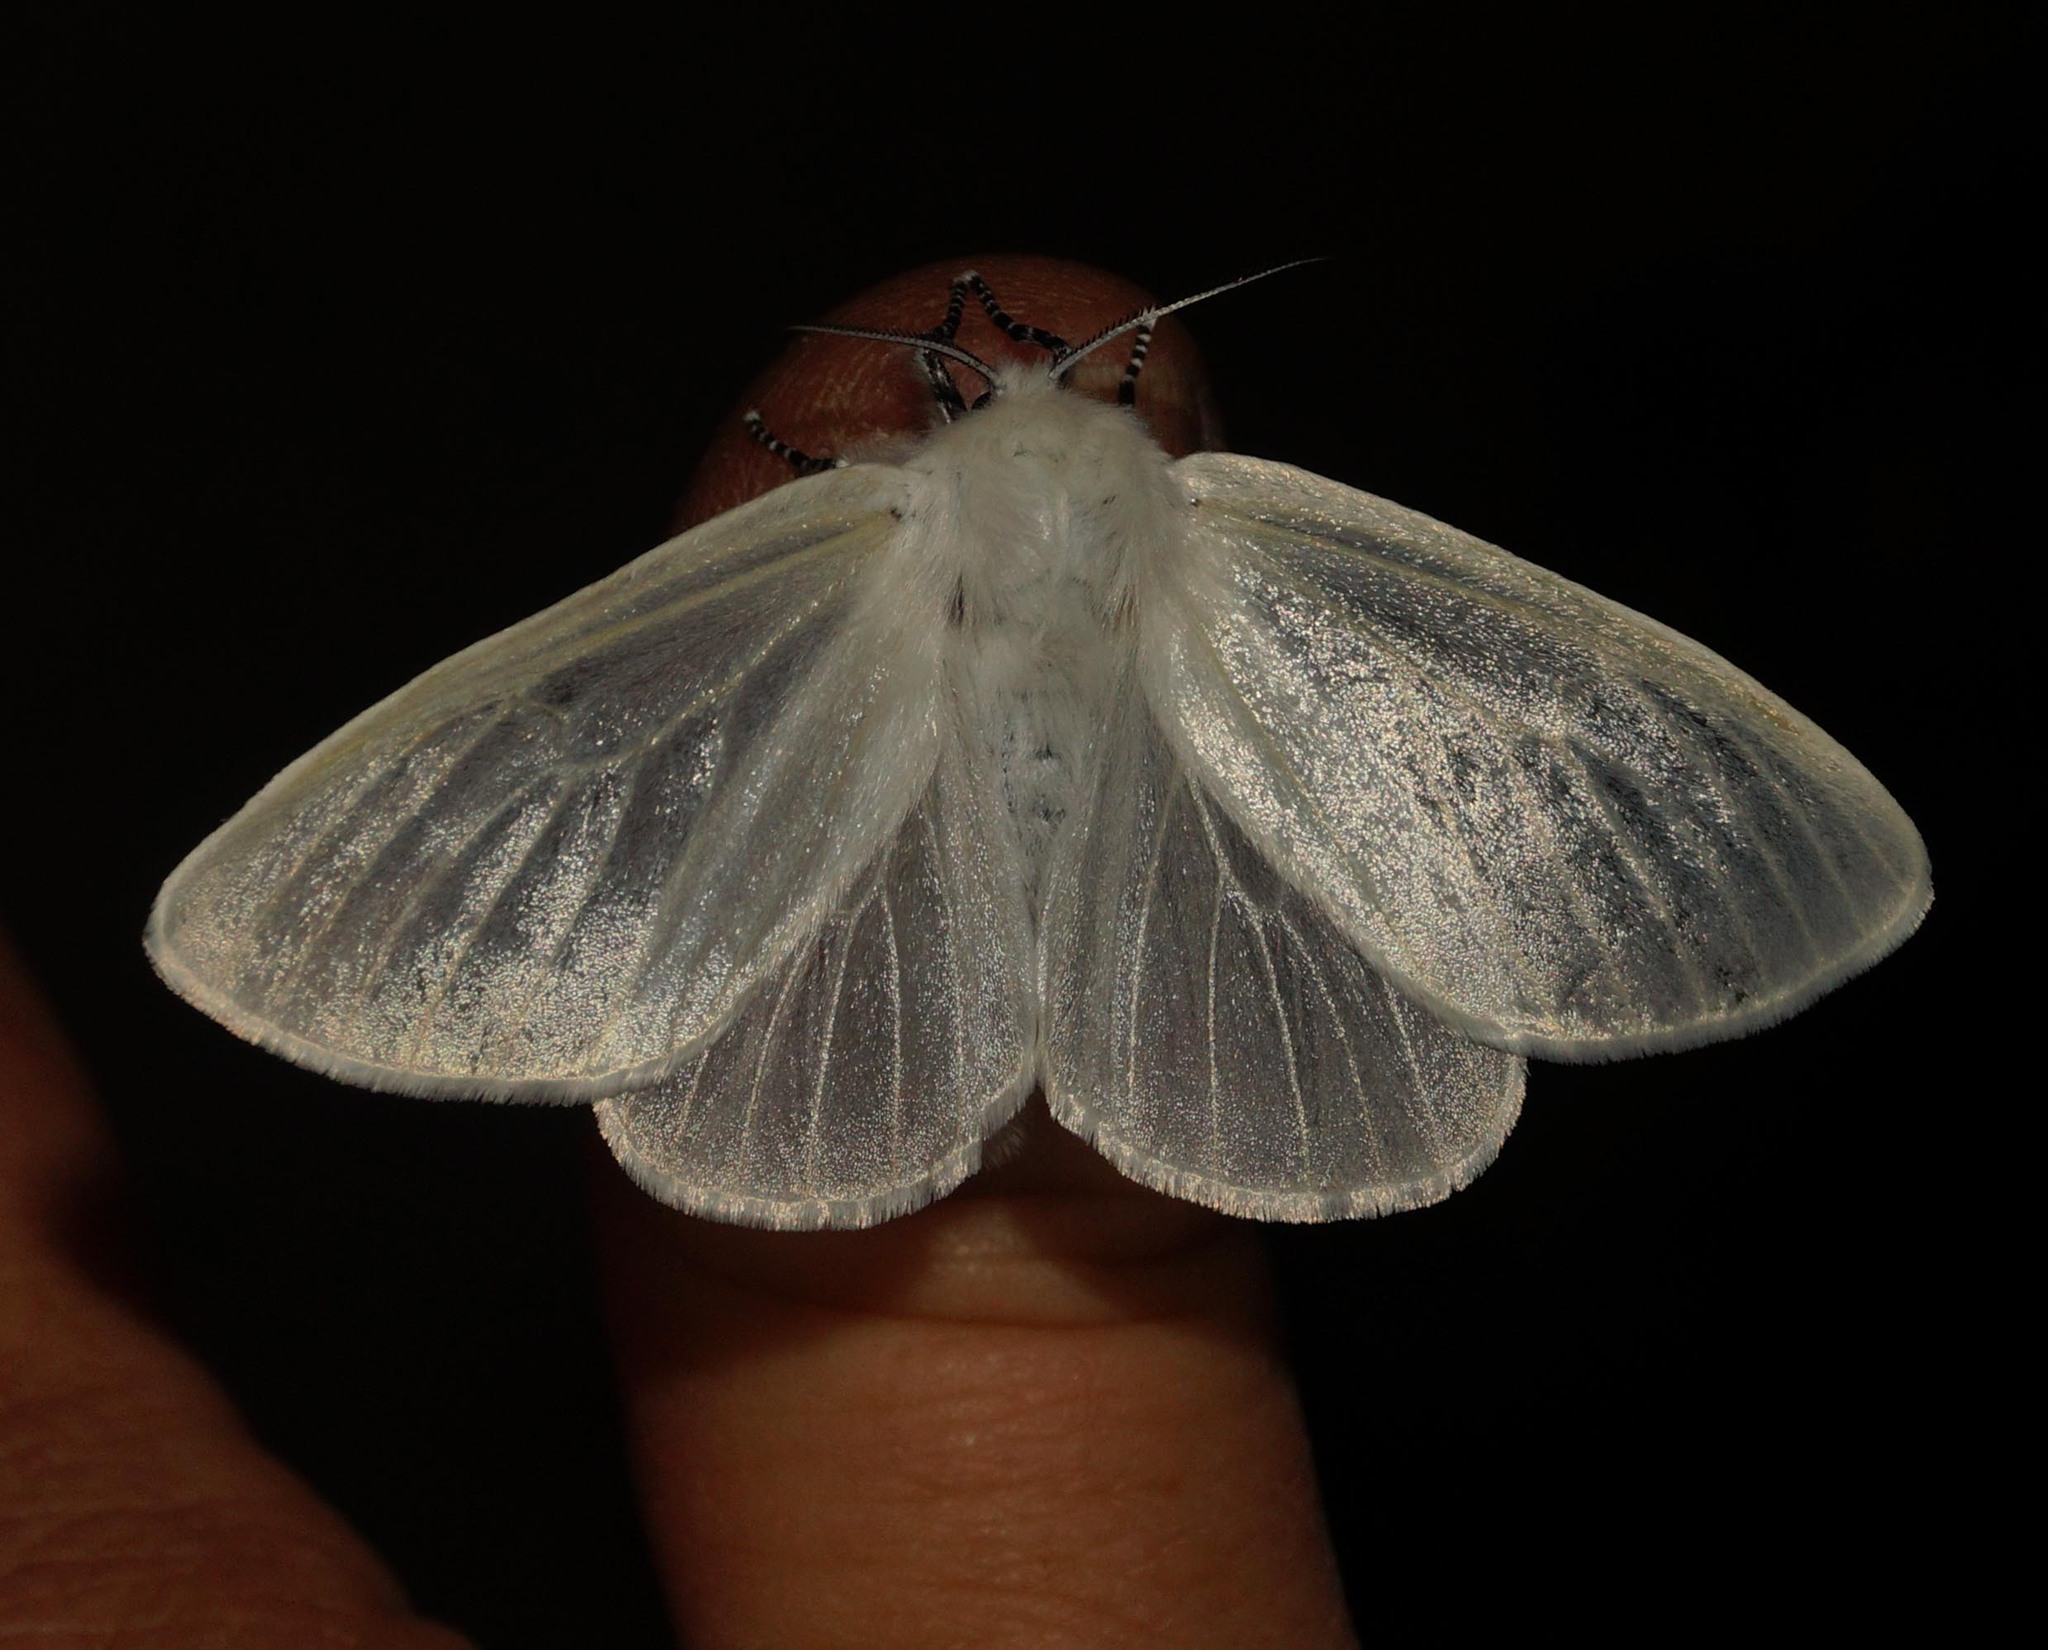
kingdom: Animalia
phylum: Arthropoda
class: Insecta
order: Lepidoptera
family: Erebidae
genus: Leucoma
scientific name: Leucoma salicis
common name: White satin moth
